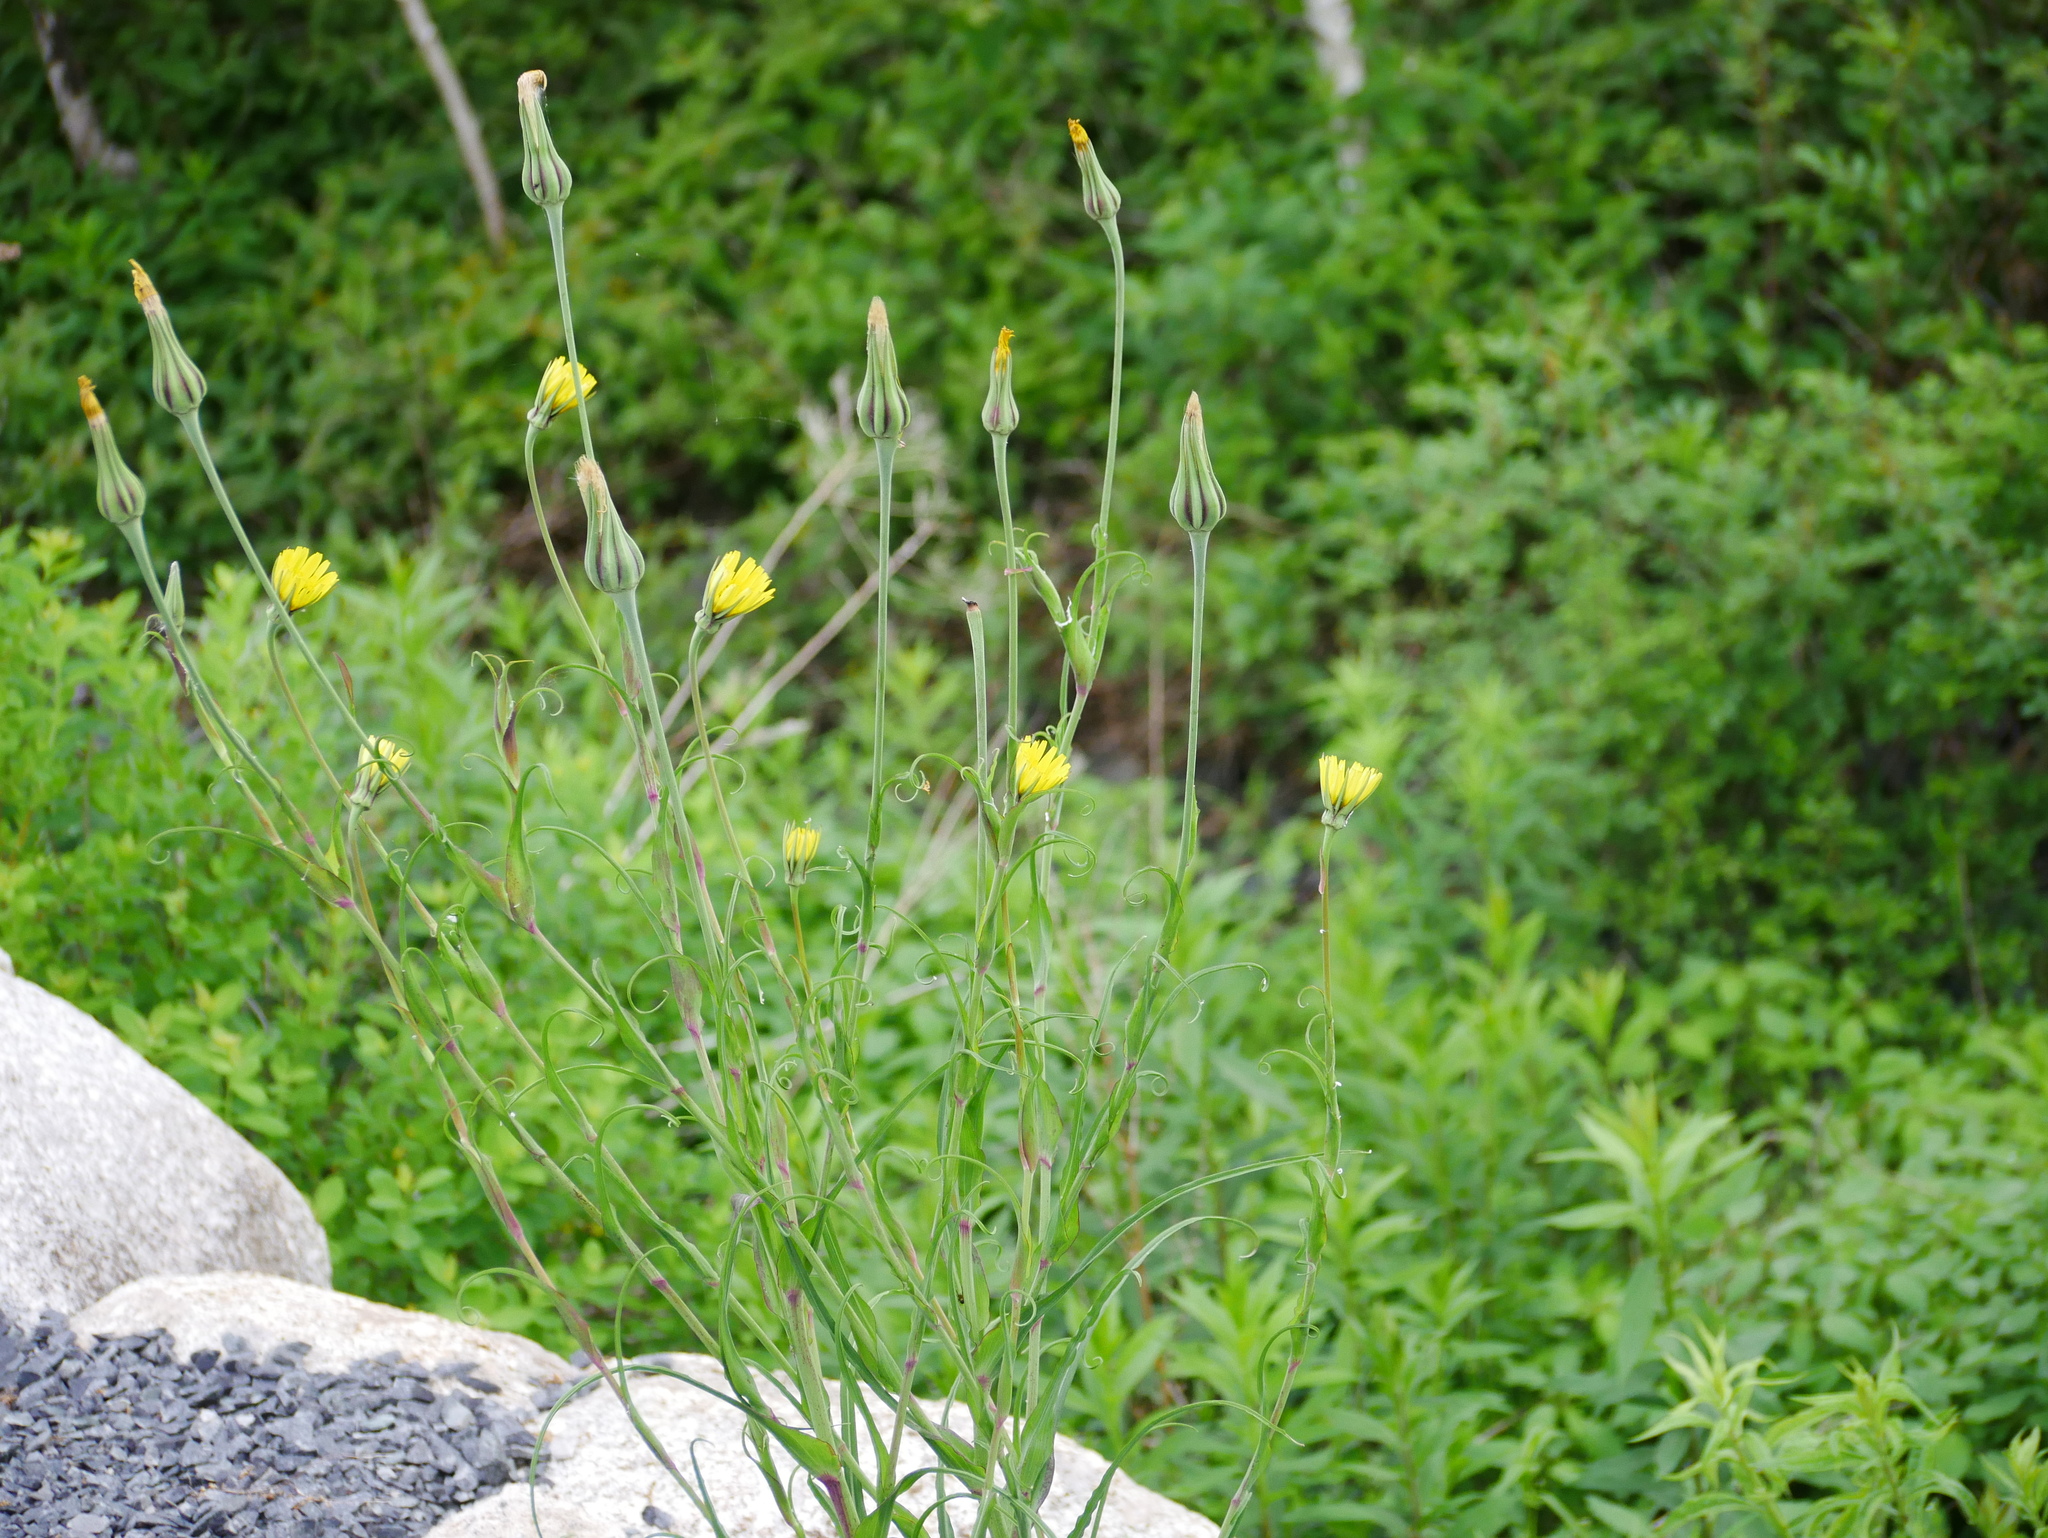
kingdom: Plantae
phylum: Tracheophyta
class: Magnoliopsida
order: Asterales
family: Asteraceae
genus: Tragopogon
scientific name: Tragopogon pratensis
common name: Goat's-beard
